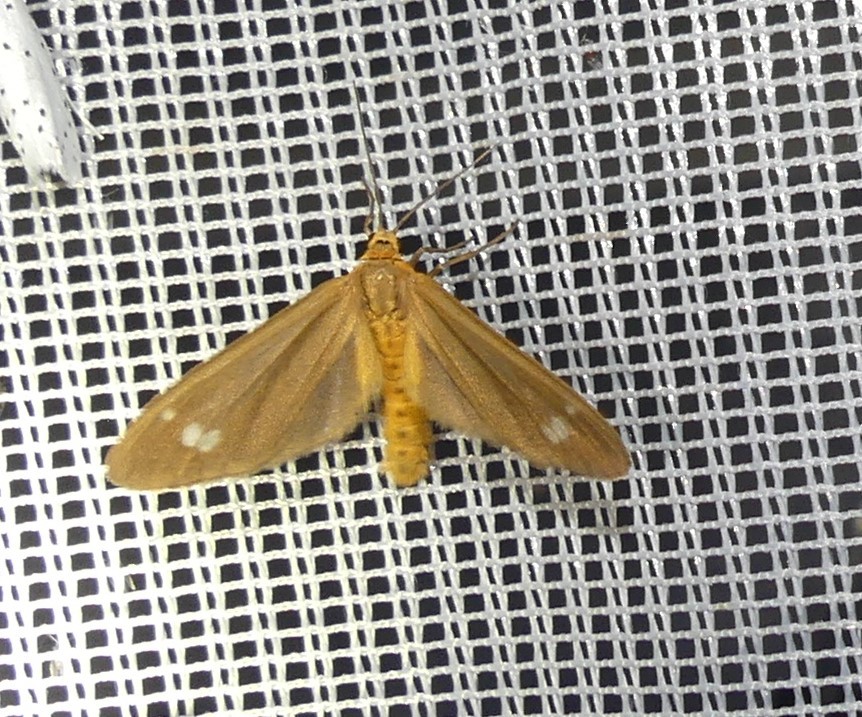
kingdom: Animalia
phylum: Arthropoda
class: Insecta
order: Lepidoptera
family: Erebidae
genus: Dysauxes
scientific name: Dysauxes ancilla
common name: The handmaid
